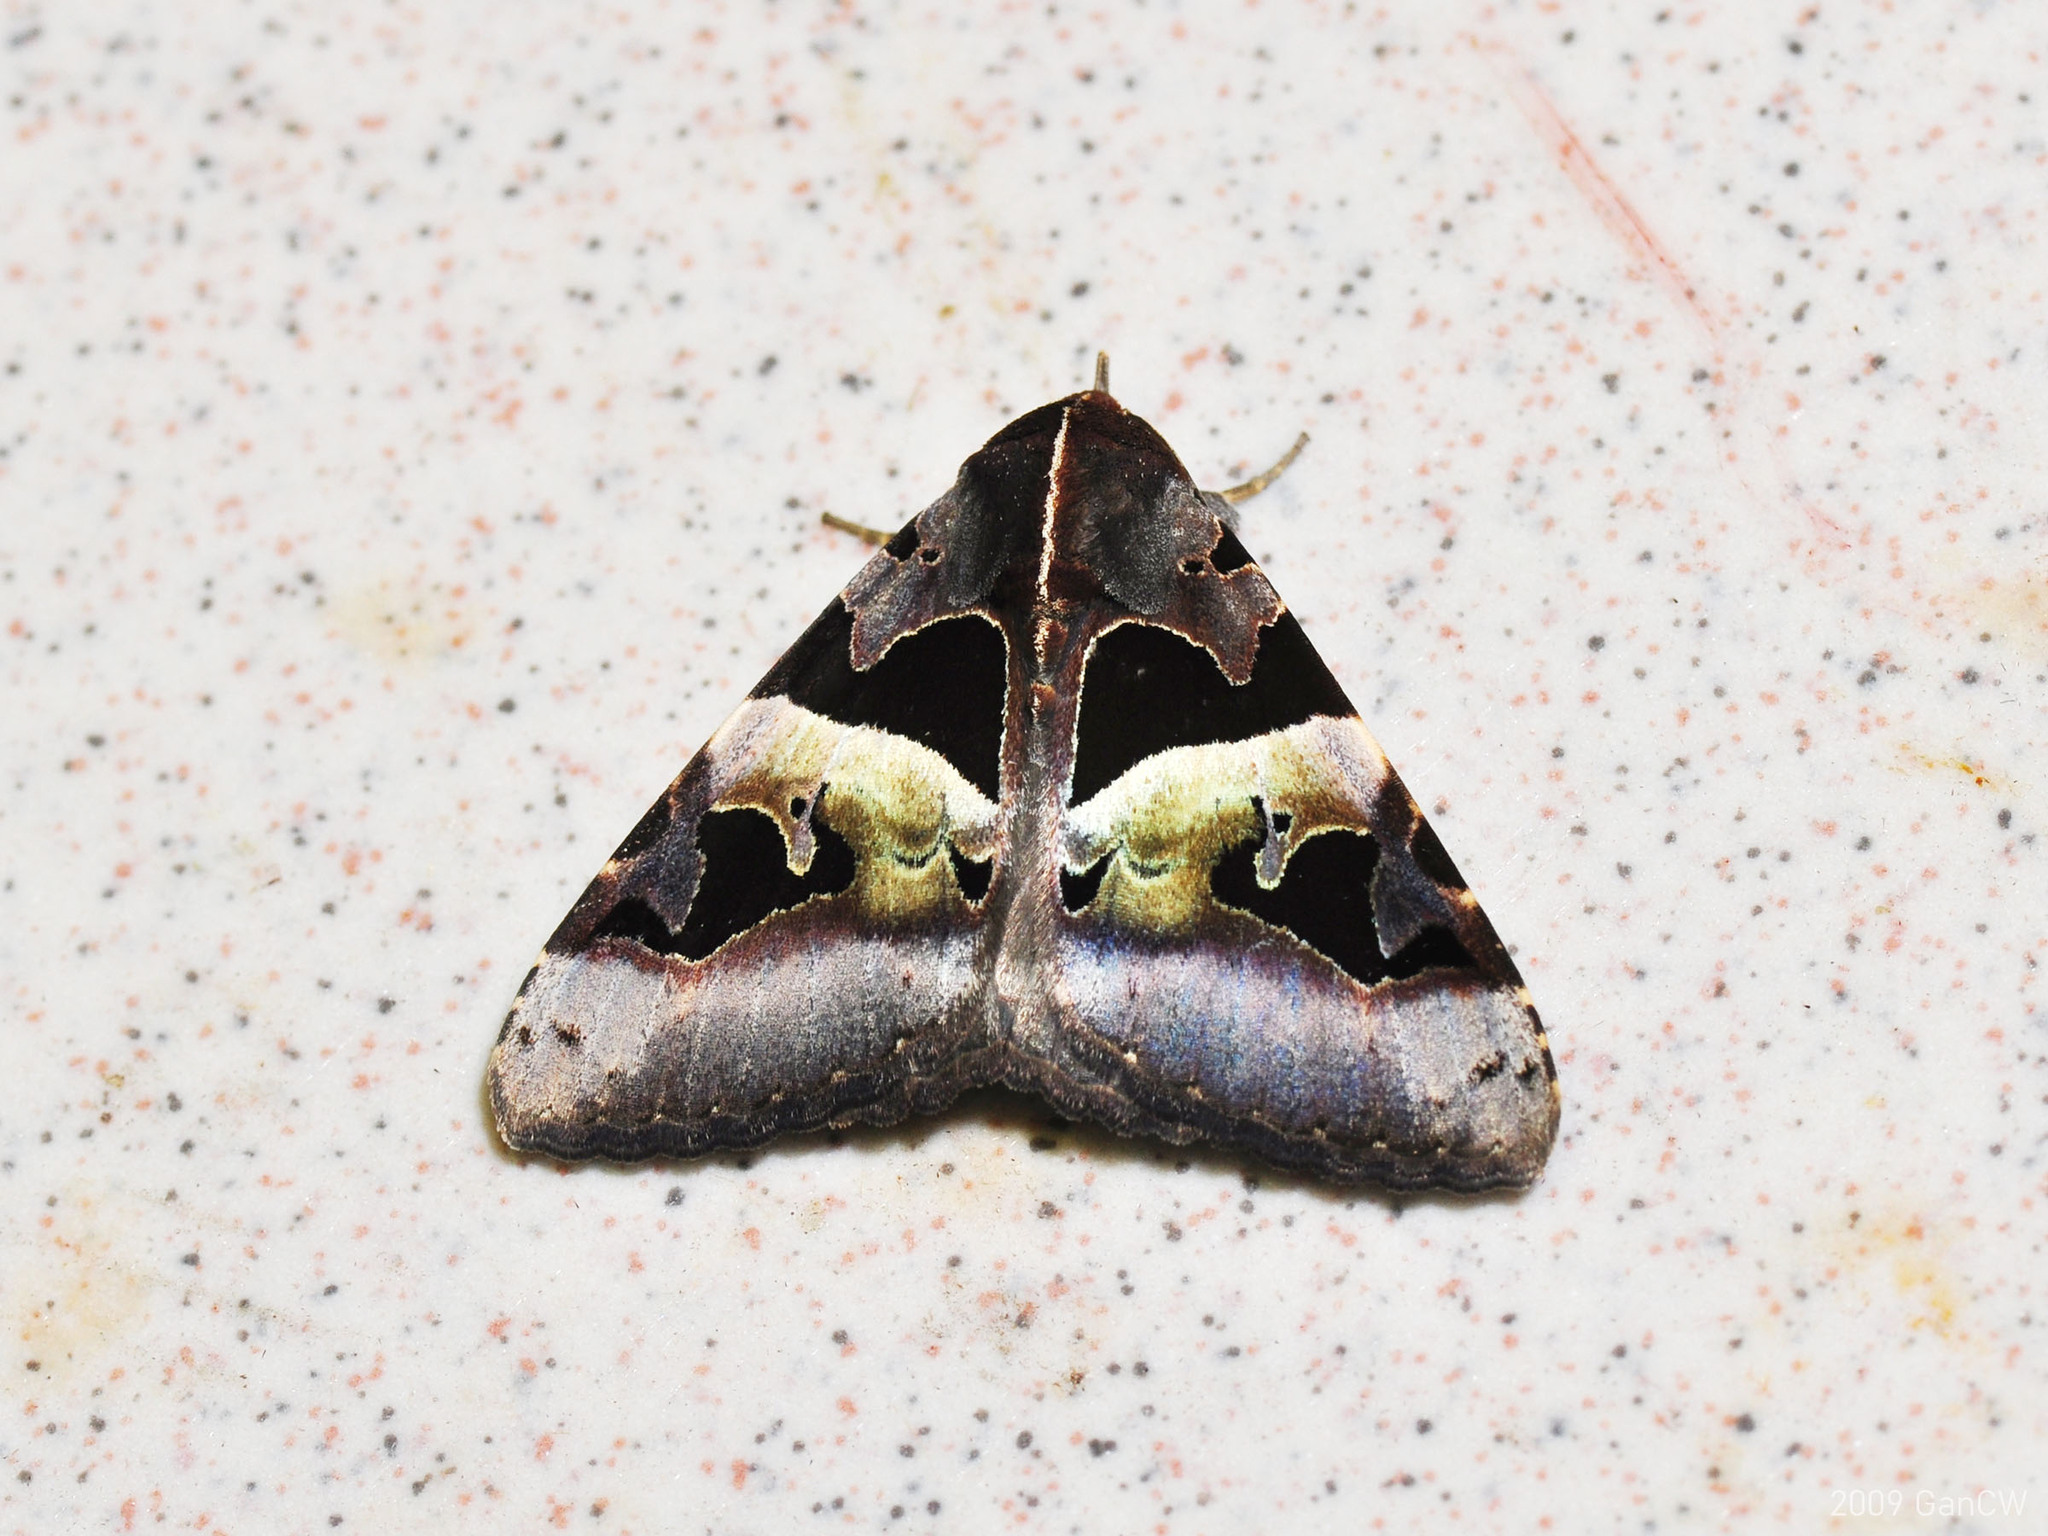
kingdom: Animalia
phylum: Arthropoda
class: Insecta
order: Lepidoptera
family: Erebidae
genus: Avatha
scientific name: Avatha pulcherrima
